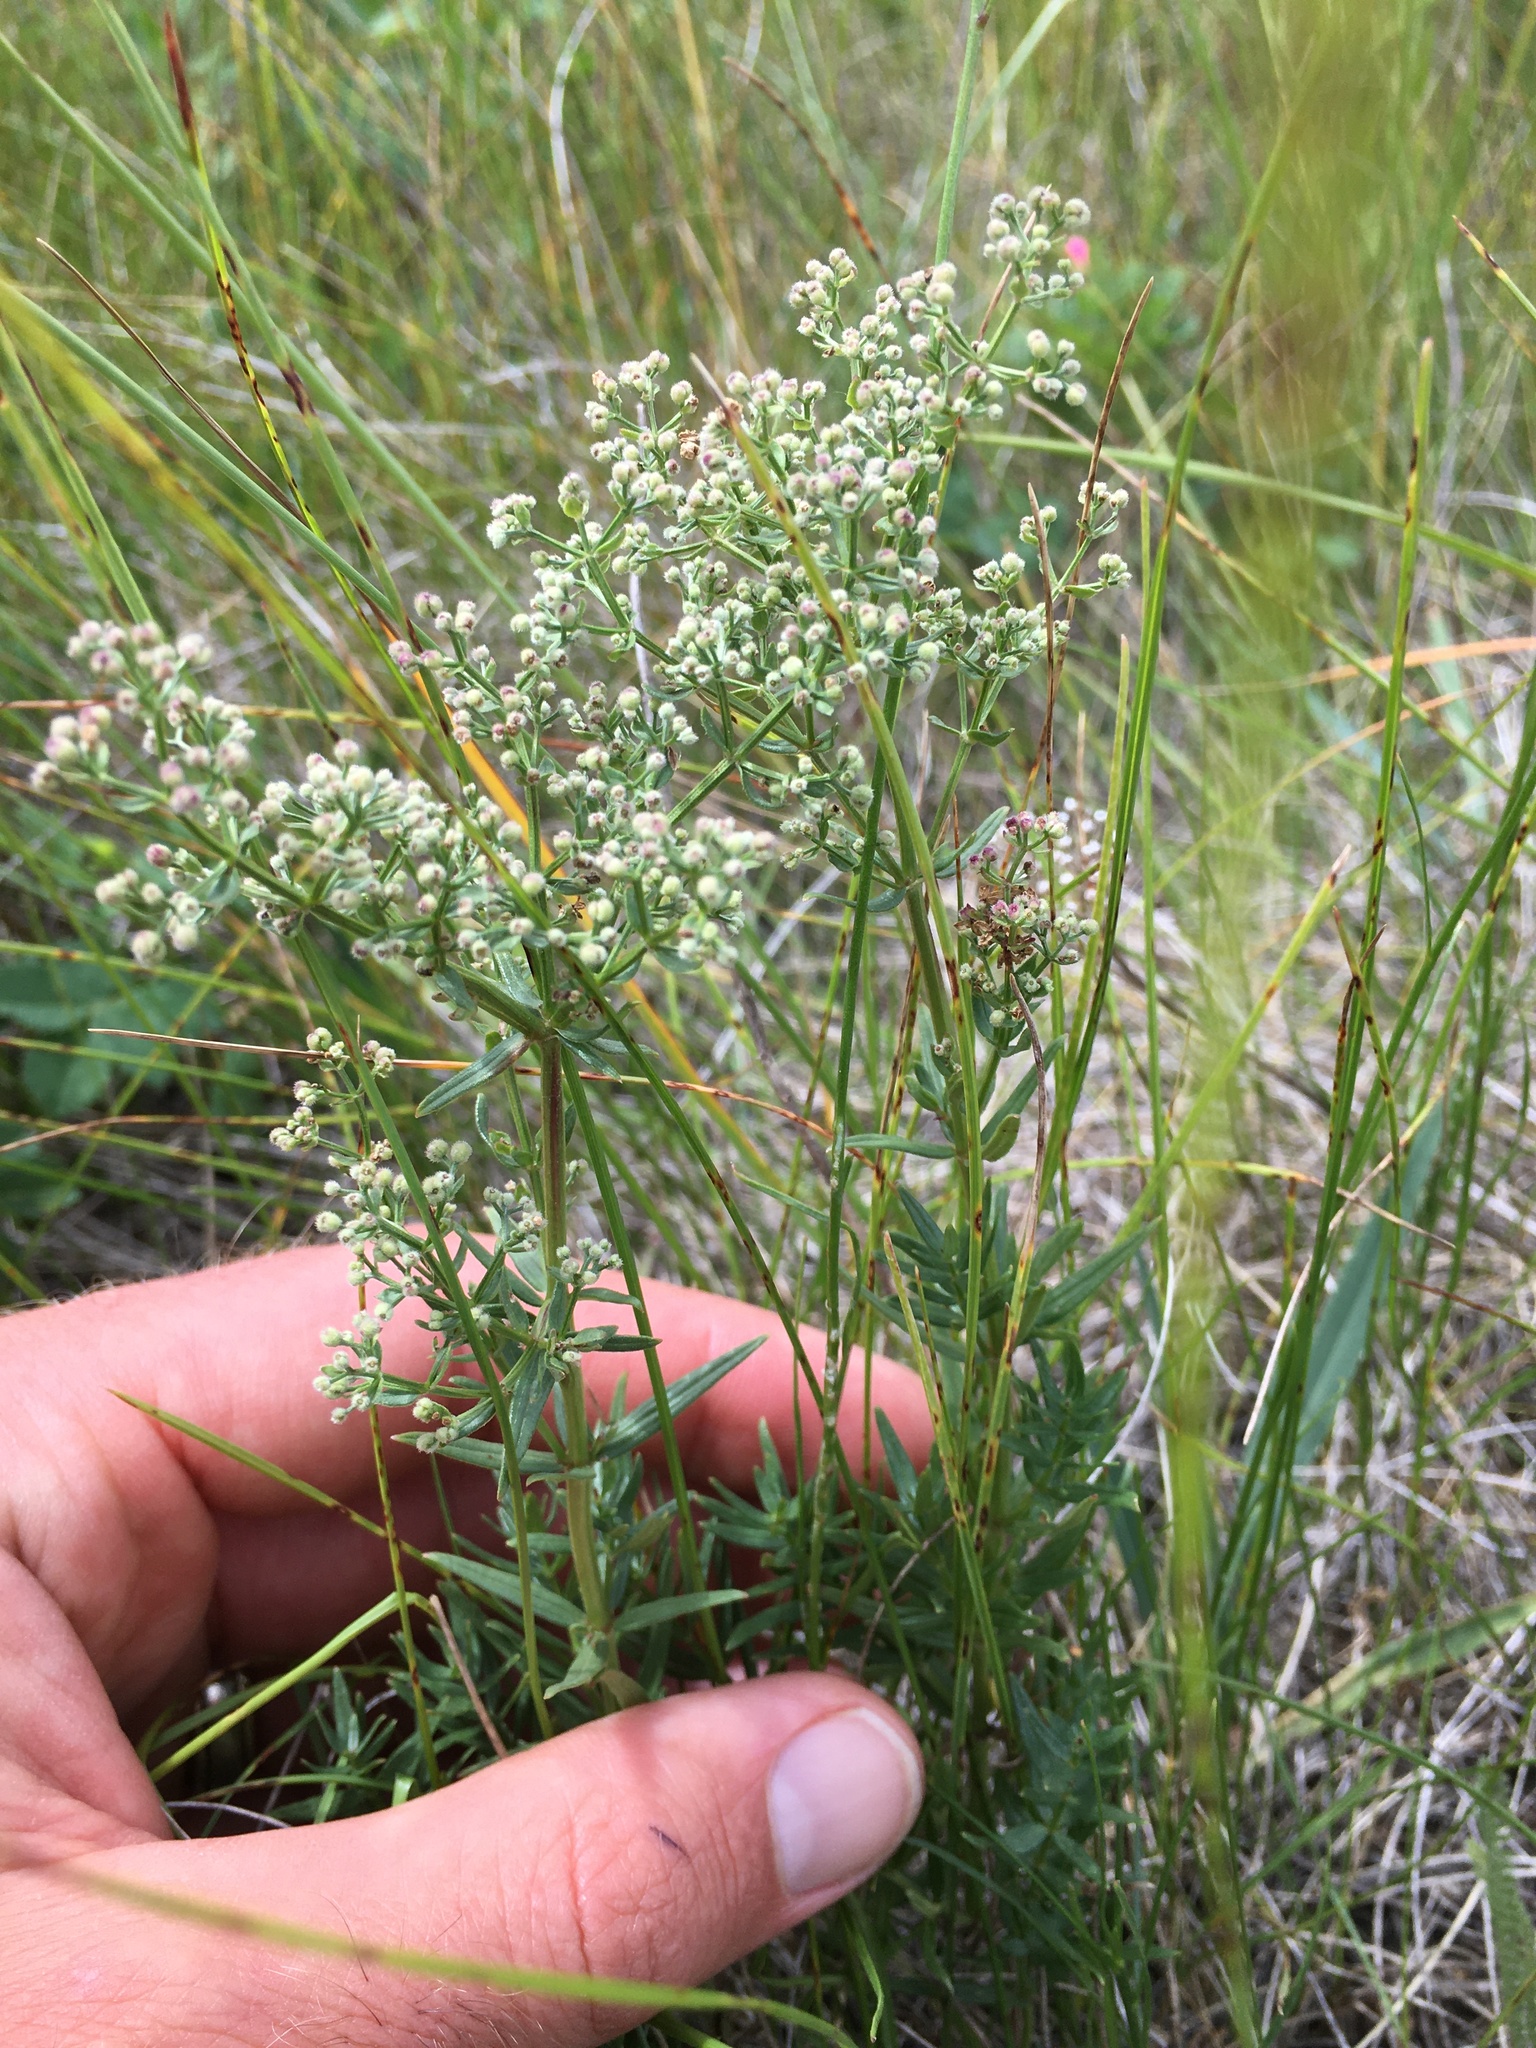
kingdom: Plantae
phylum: Tracheophyta
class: Magnoliopsida
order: Gentianales
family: Rubiaceae
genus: Galium
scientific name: Galium boreale
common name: Northern bedstraw
